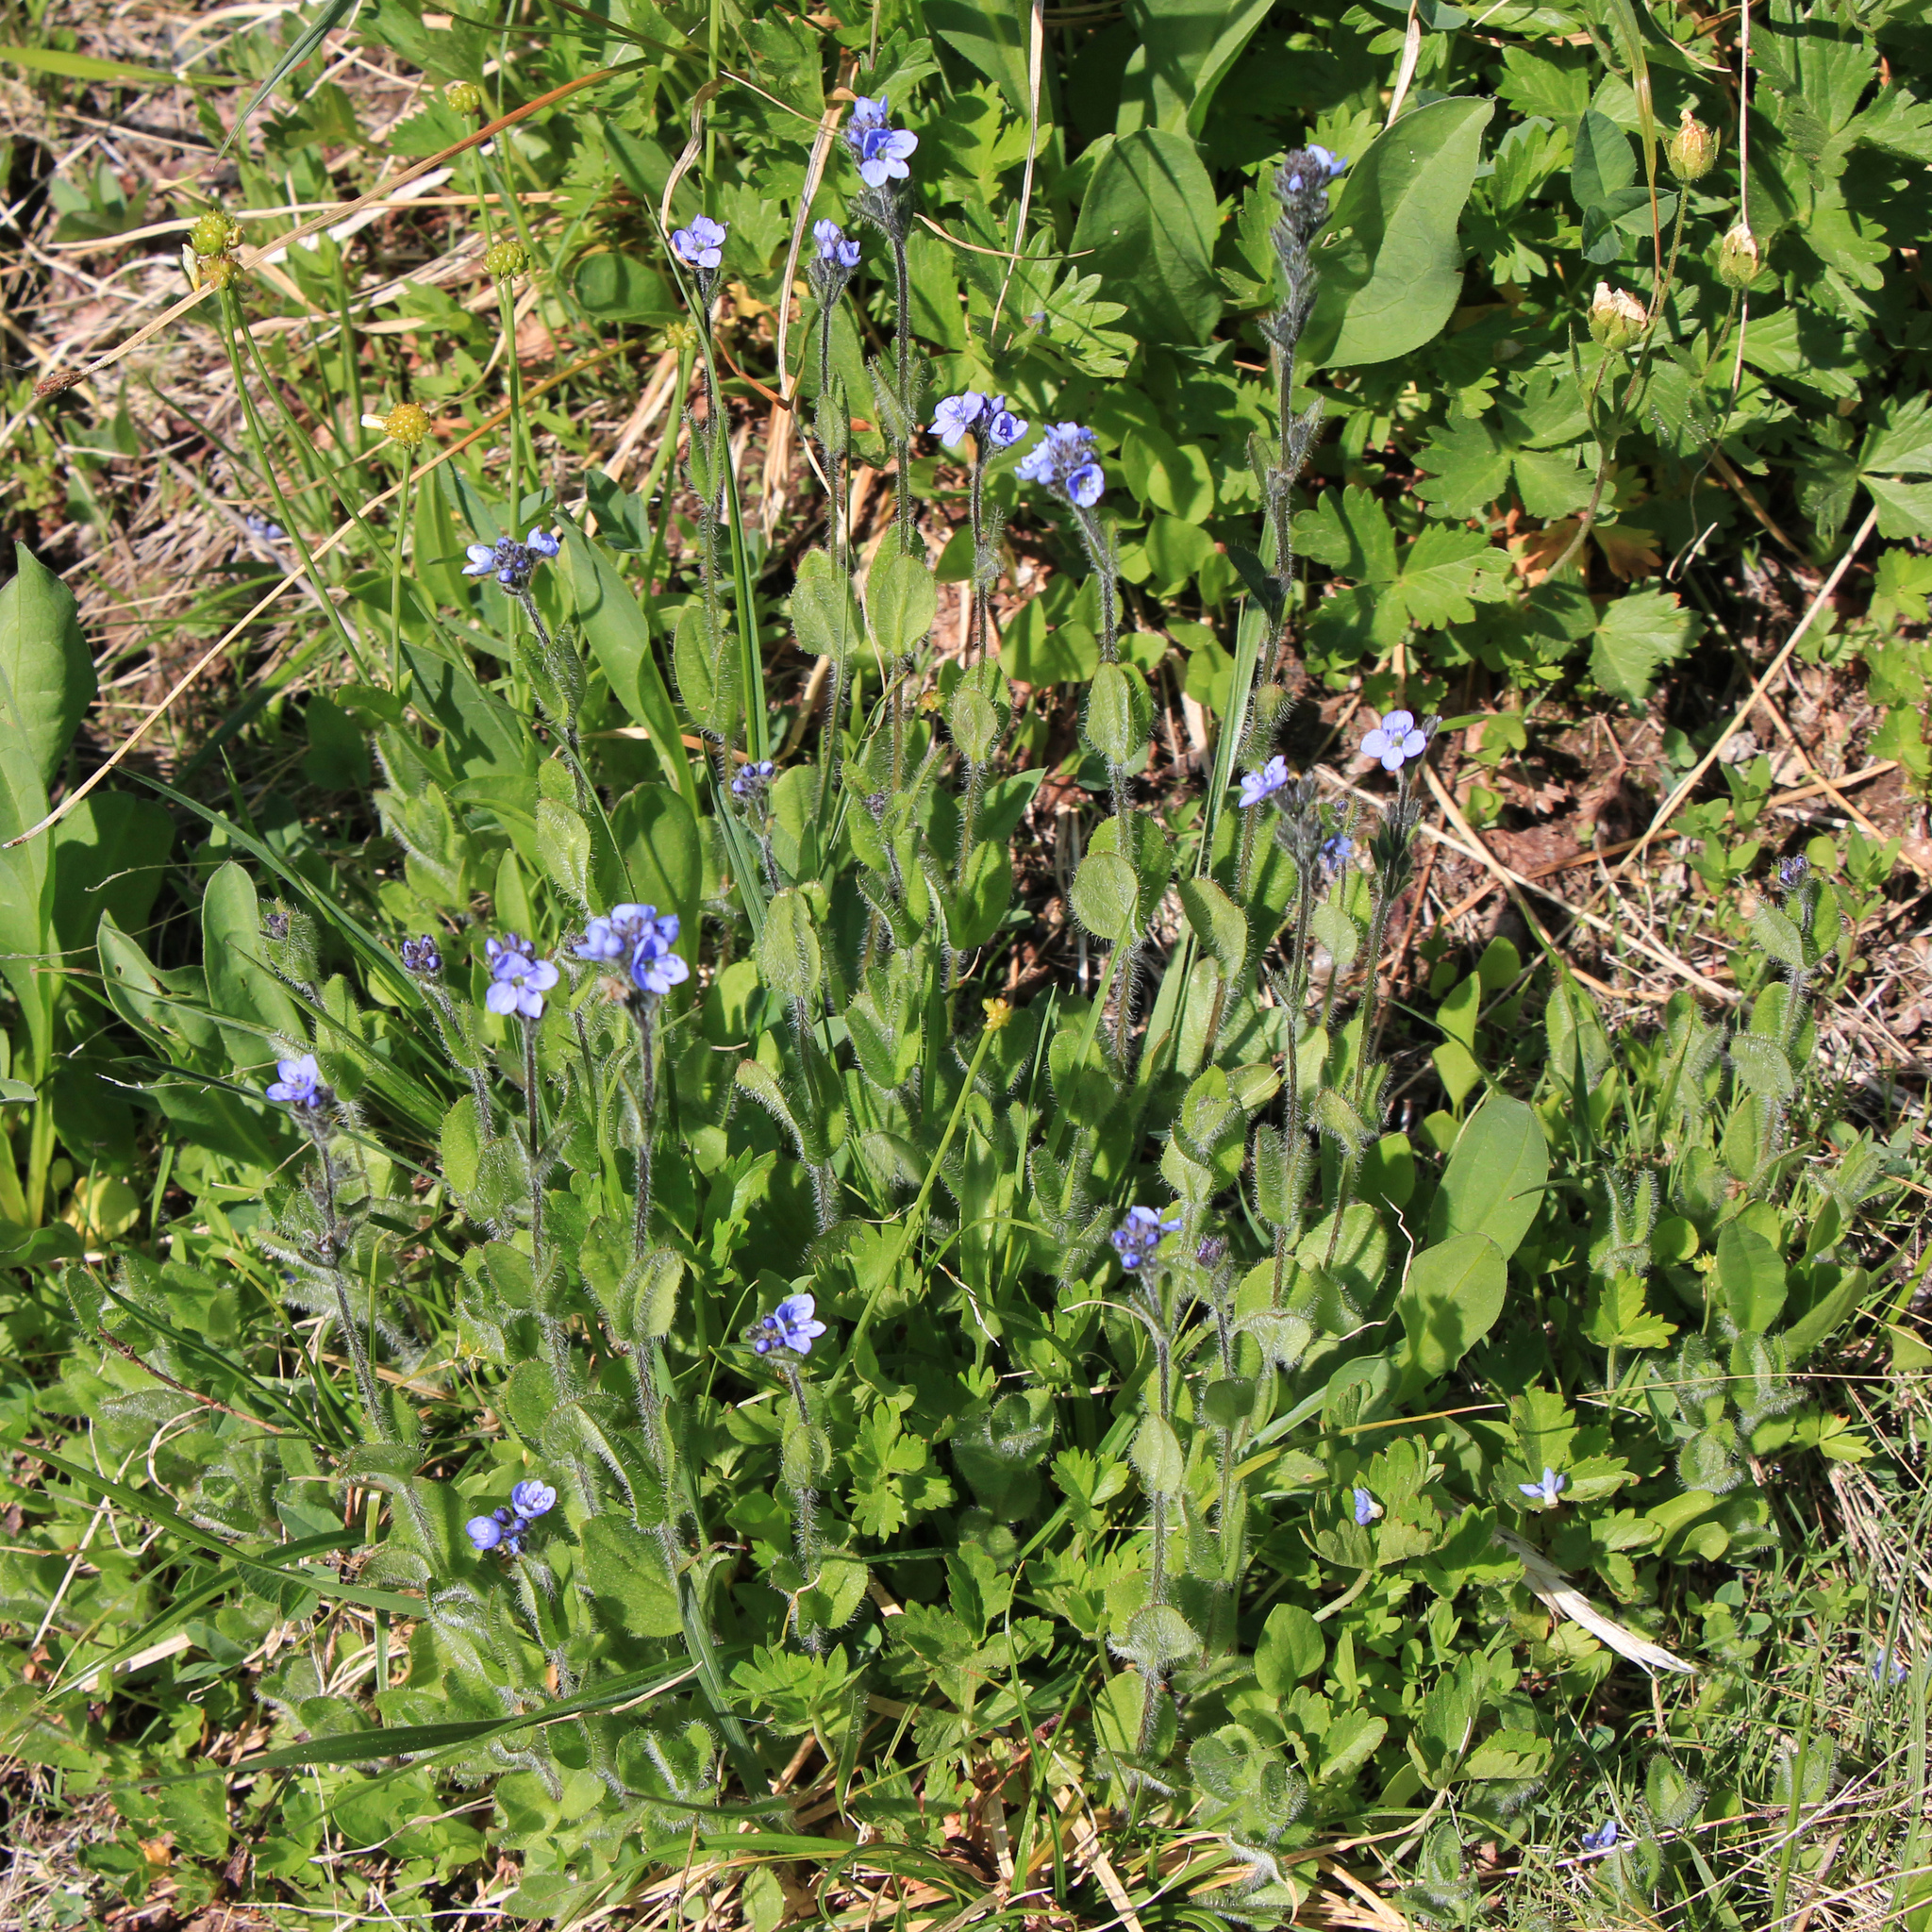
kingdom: Plantae
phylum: Tracheophyta
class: Magnoliopsida
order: Lamiales
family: Plantaginaceae
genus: Veronica
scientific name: Veronica wormskjoldii
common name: American alpine speedwell
